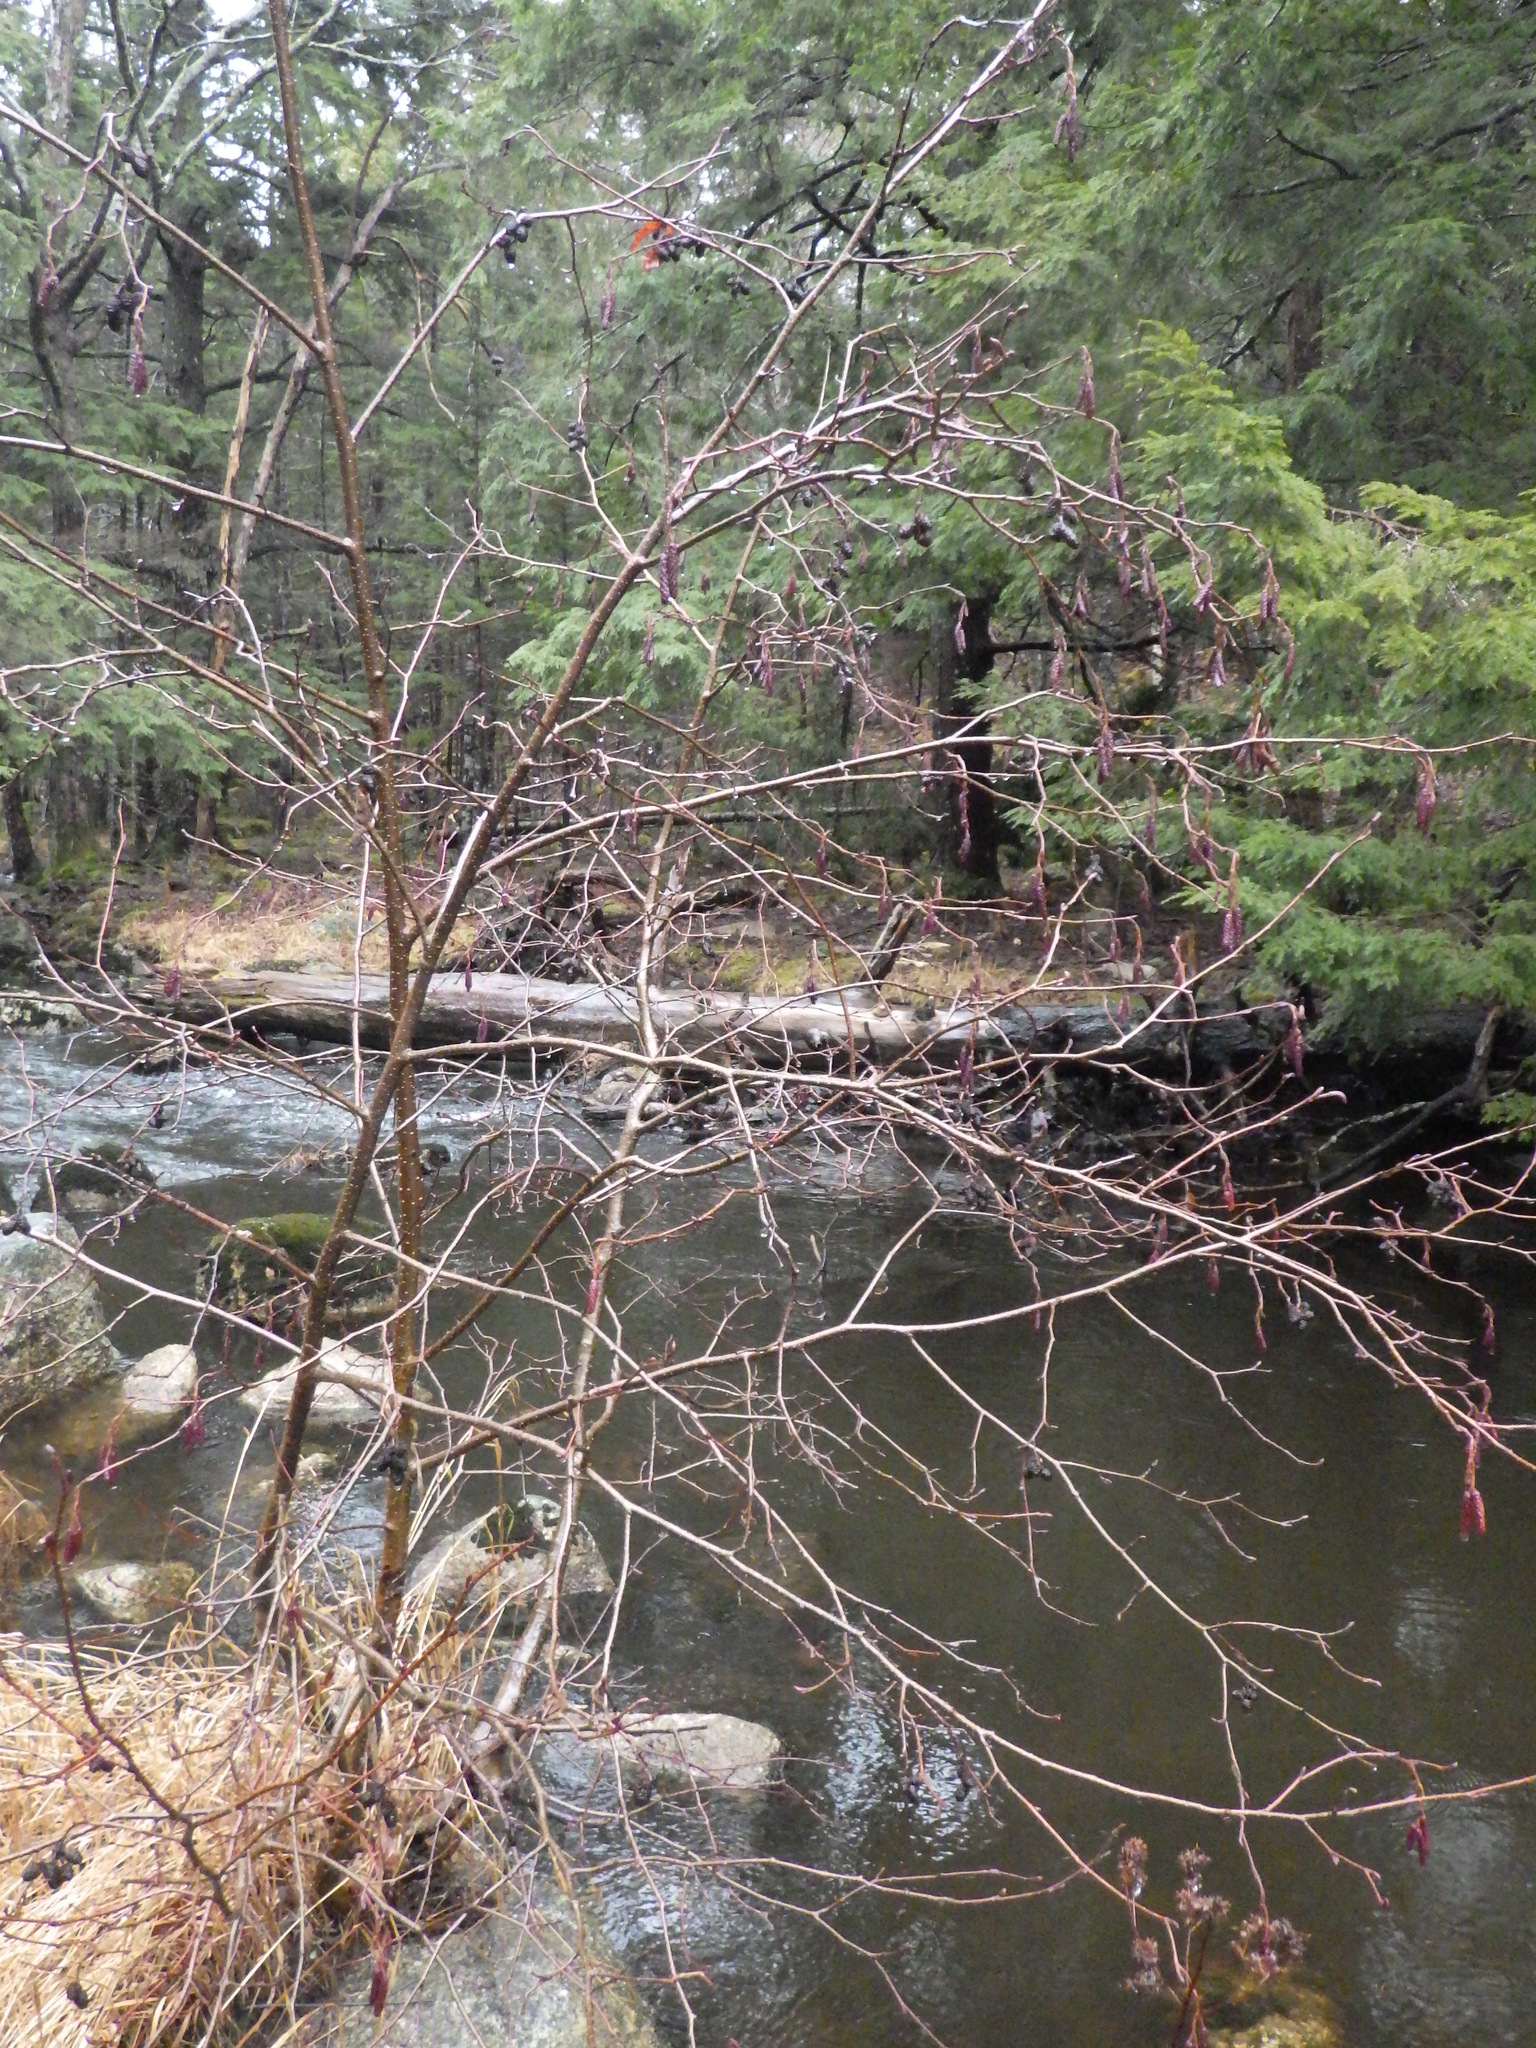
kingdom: Plantae
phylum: Tracheophyta
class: Magnoliopsida
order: Fagales
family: Betulaceae
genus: Alnus
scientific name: Alnus incana
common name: Grey alder
